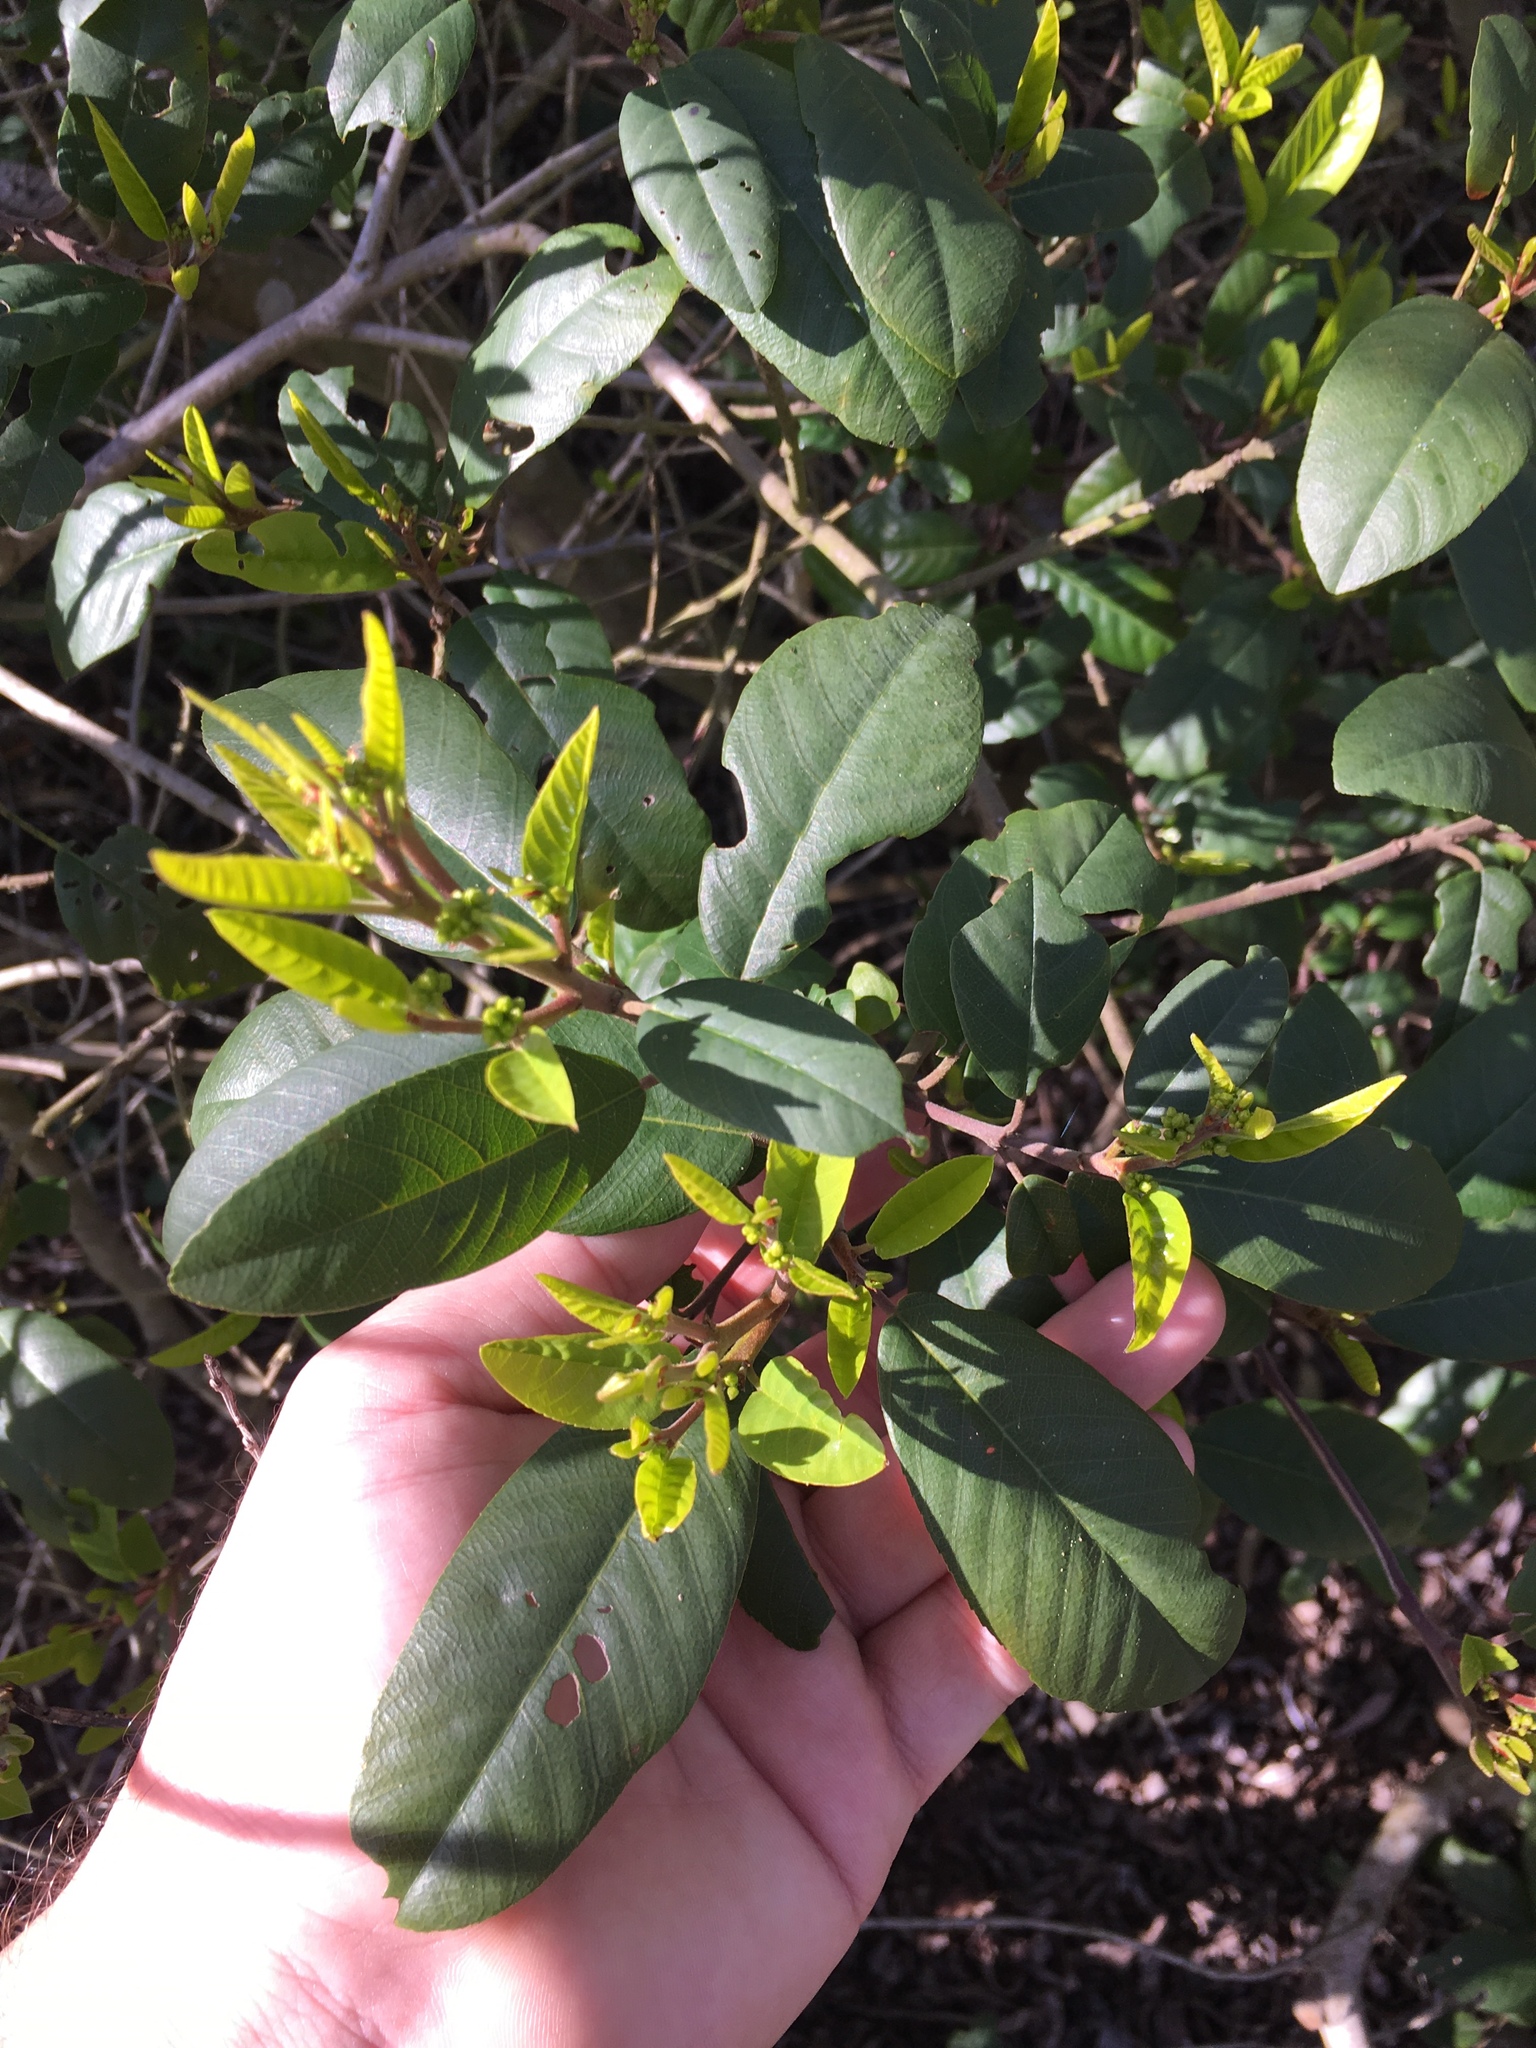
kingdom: Plantae
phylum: Tracheophyta
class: Magnoliopsida
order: Rosales
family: Rhamnaceae
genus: Frangula
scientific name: Frangula californica
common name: California buckthorn
